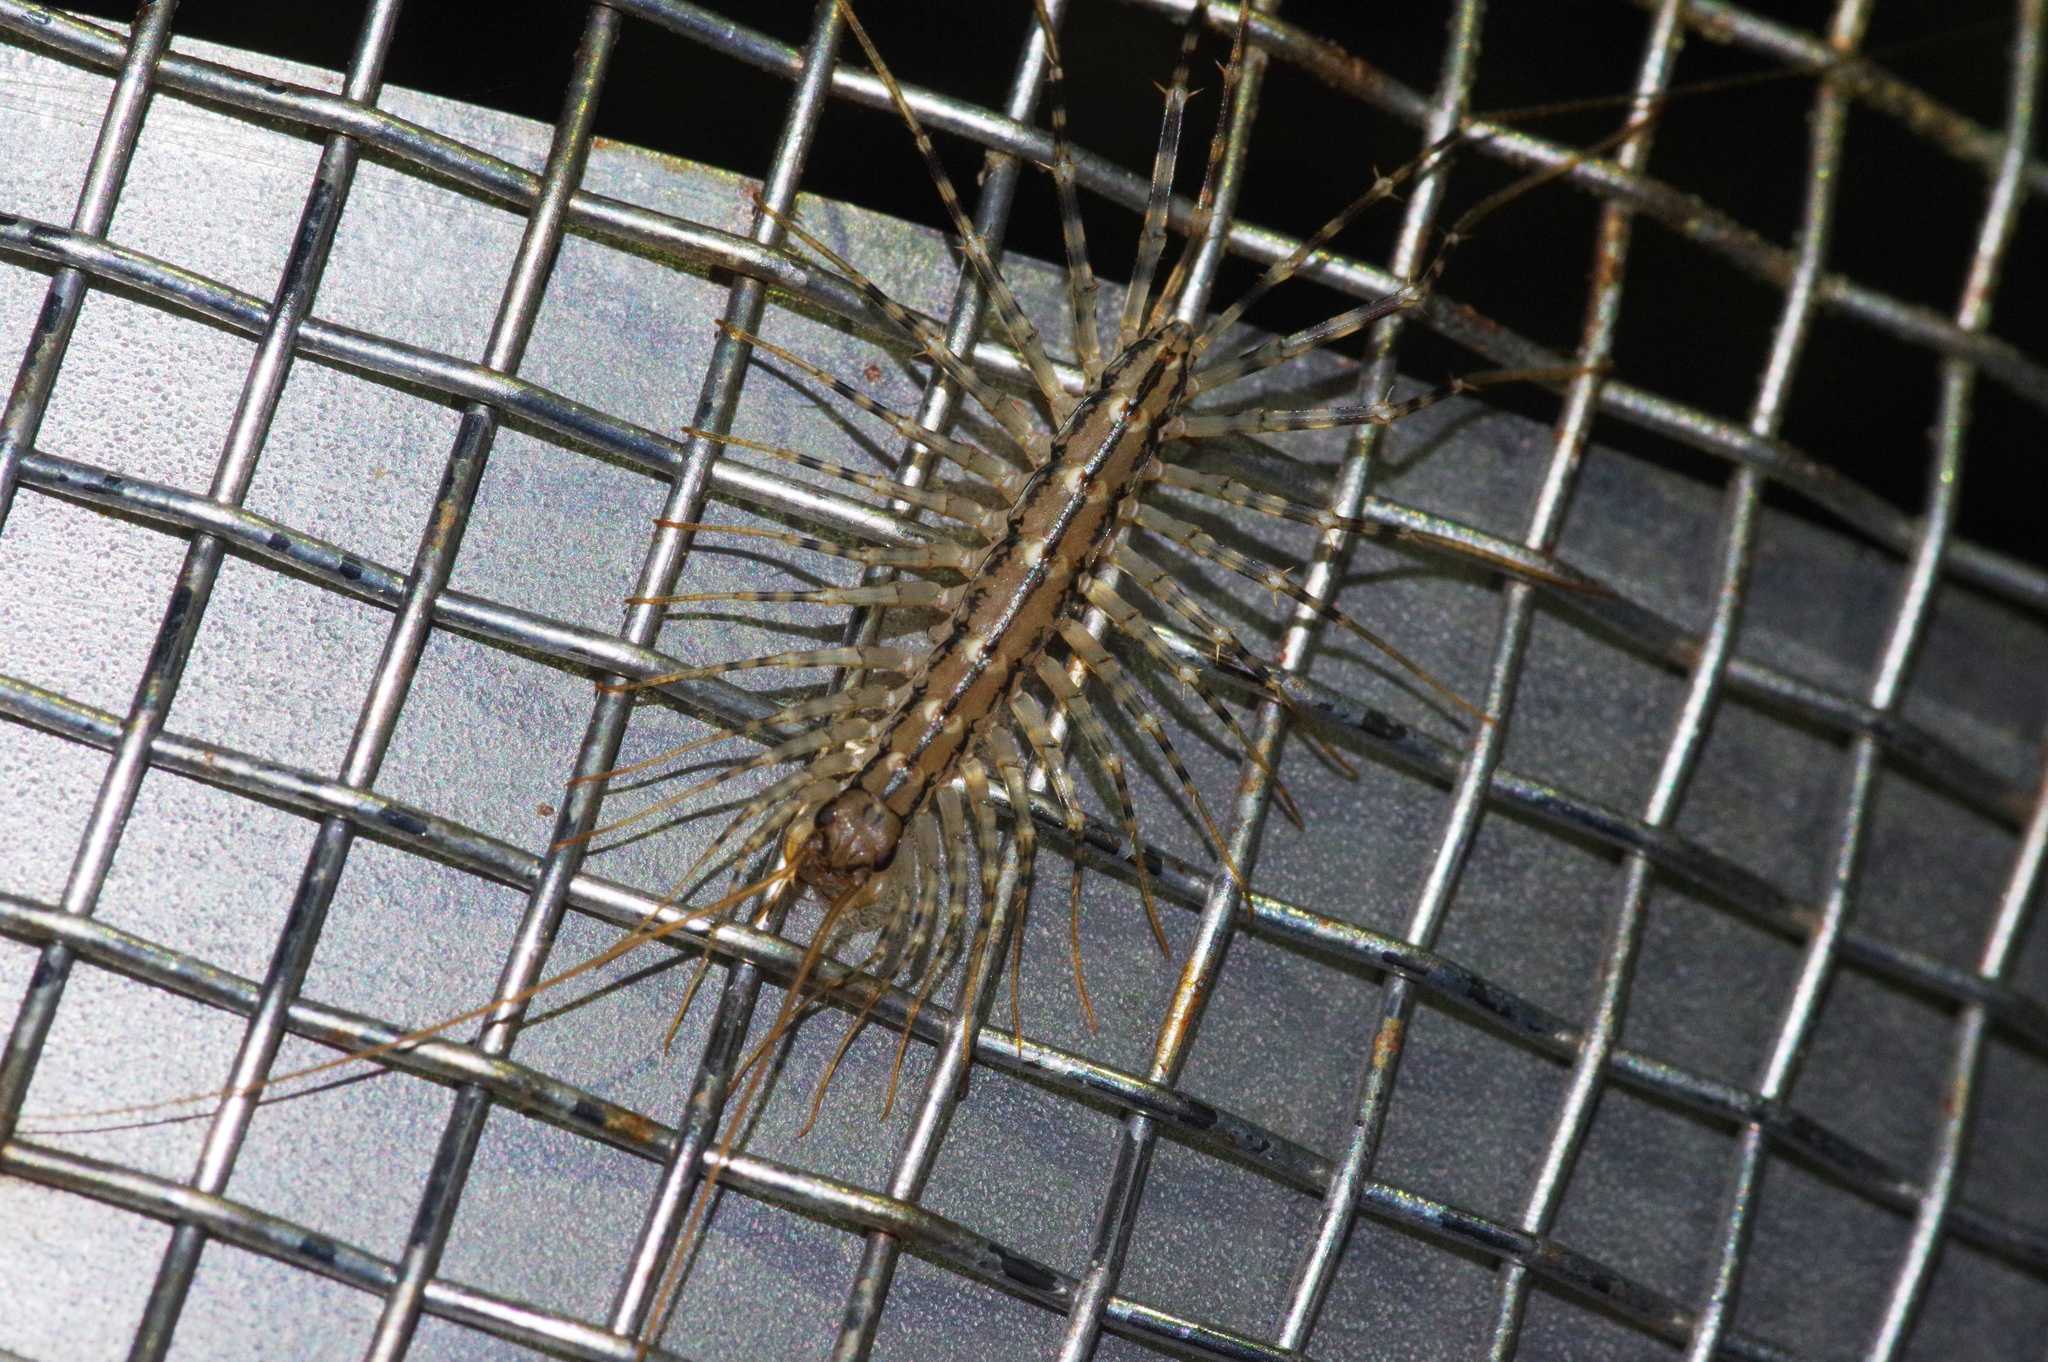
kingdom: Animalia
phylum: Arthropoda
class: Chilopoda
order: Scutigeromorpha
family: Scutigeridae
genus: Thereuonema
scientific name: Thereuonema tuberculata
